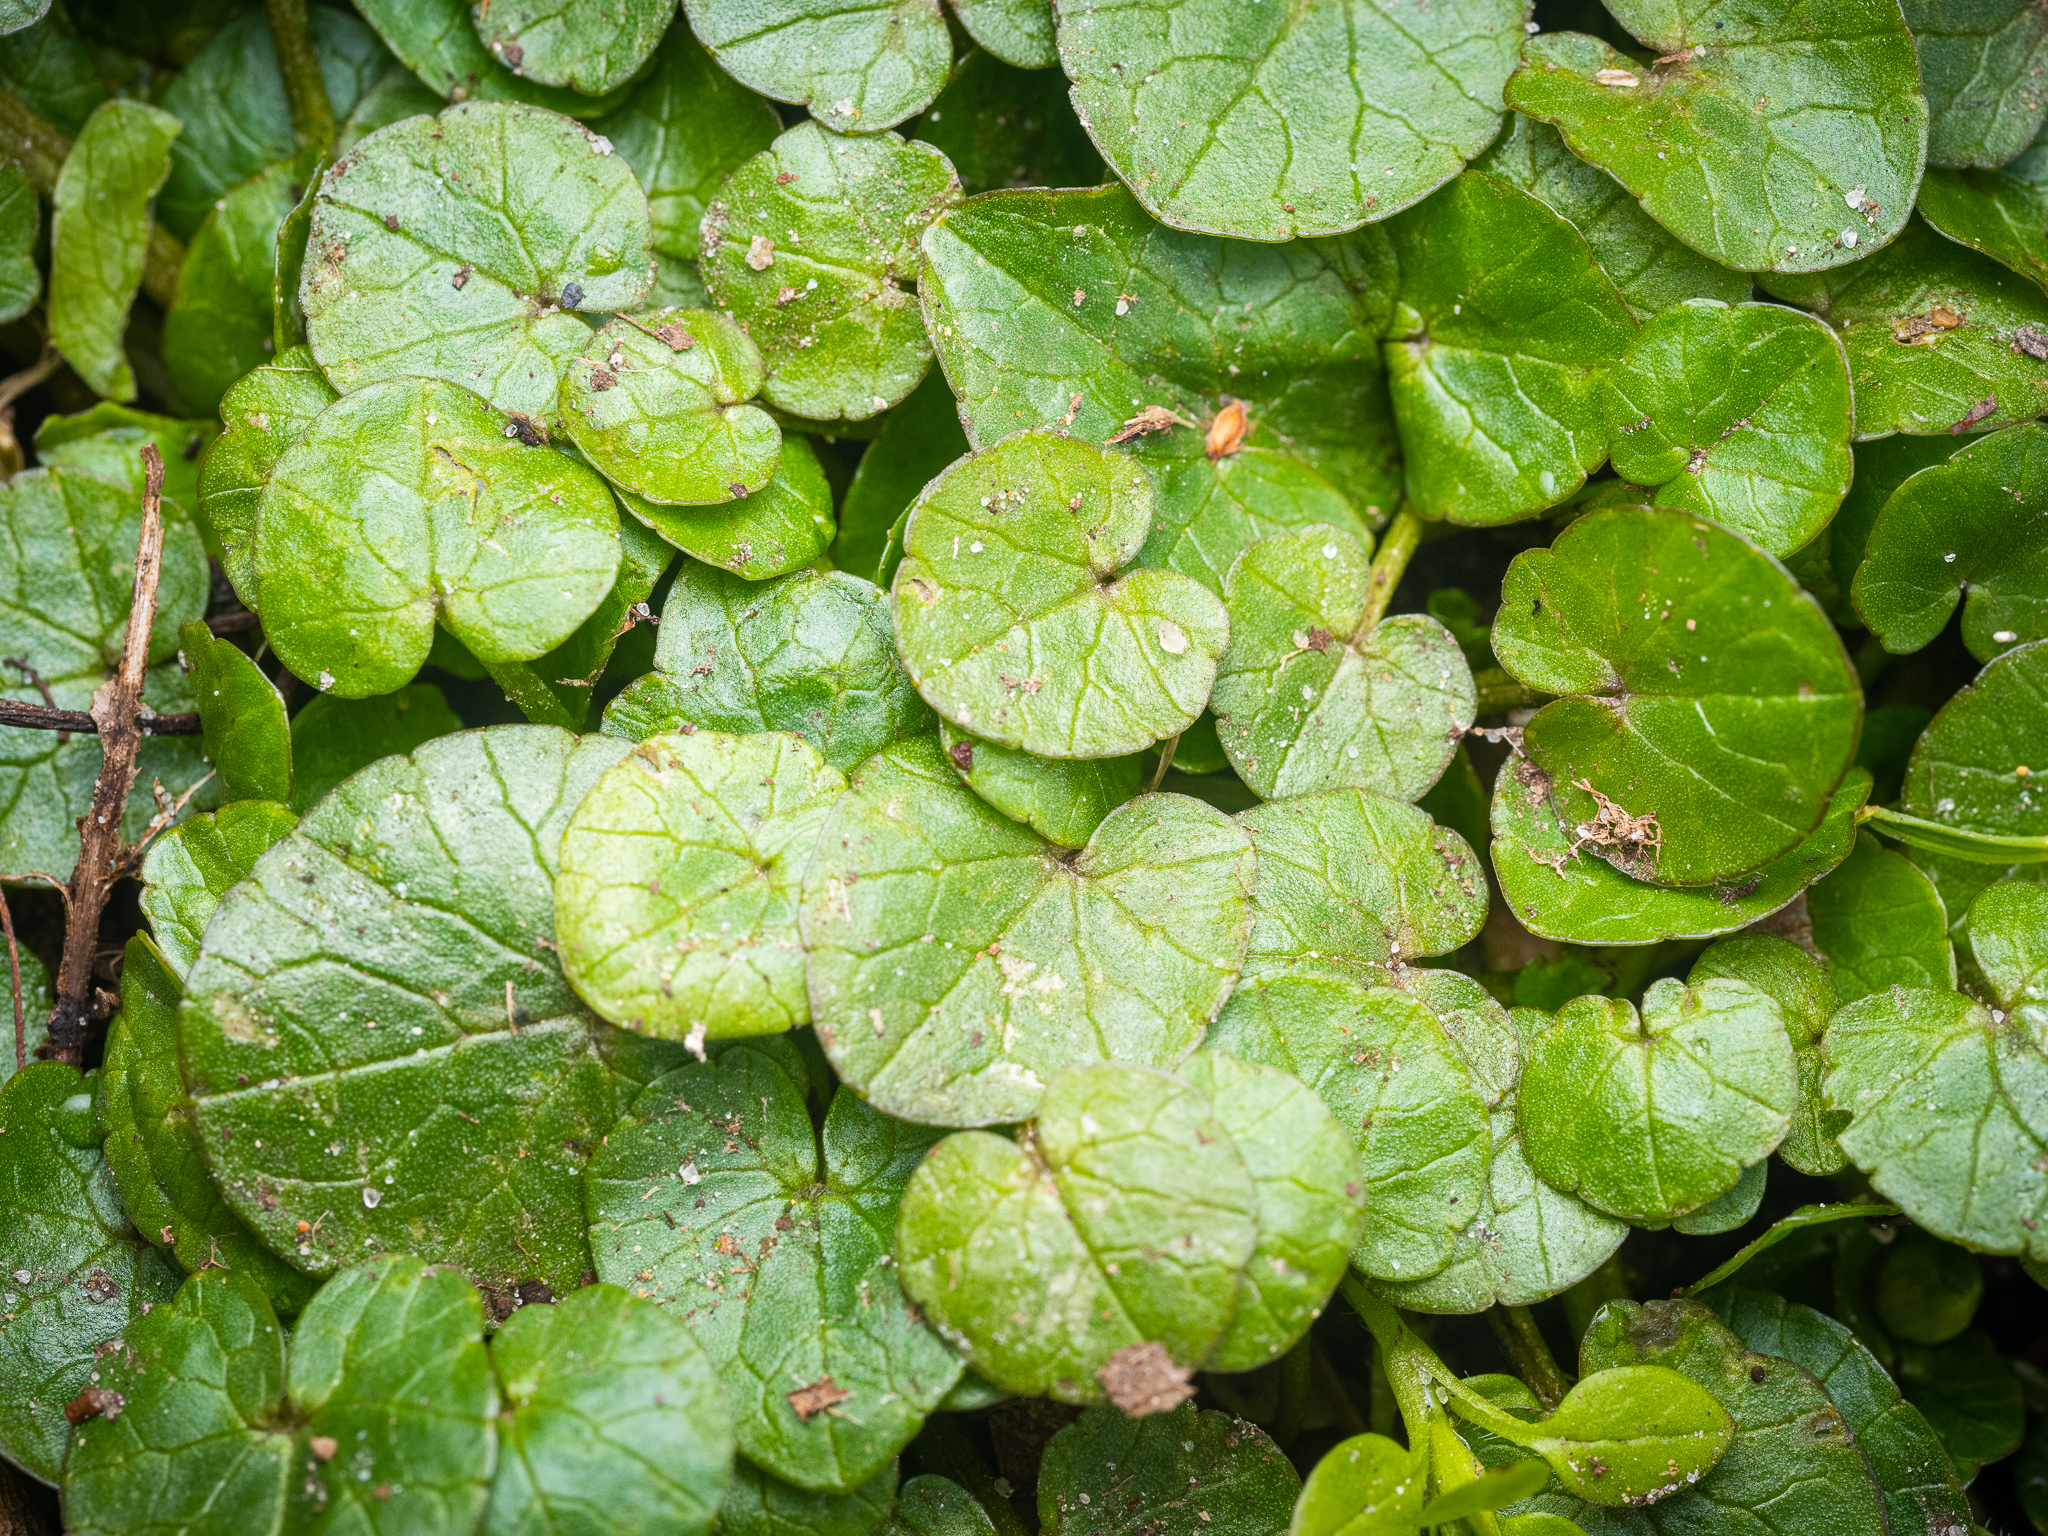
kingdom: Plantae
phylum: Tracheophyta
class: Magnoliopsida
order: Ranunculales
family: Ranunculaceae
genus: Ficaria
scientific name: Ficaria verna
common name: Lesser celandine
